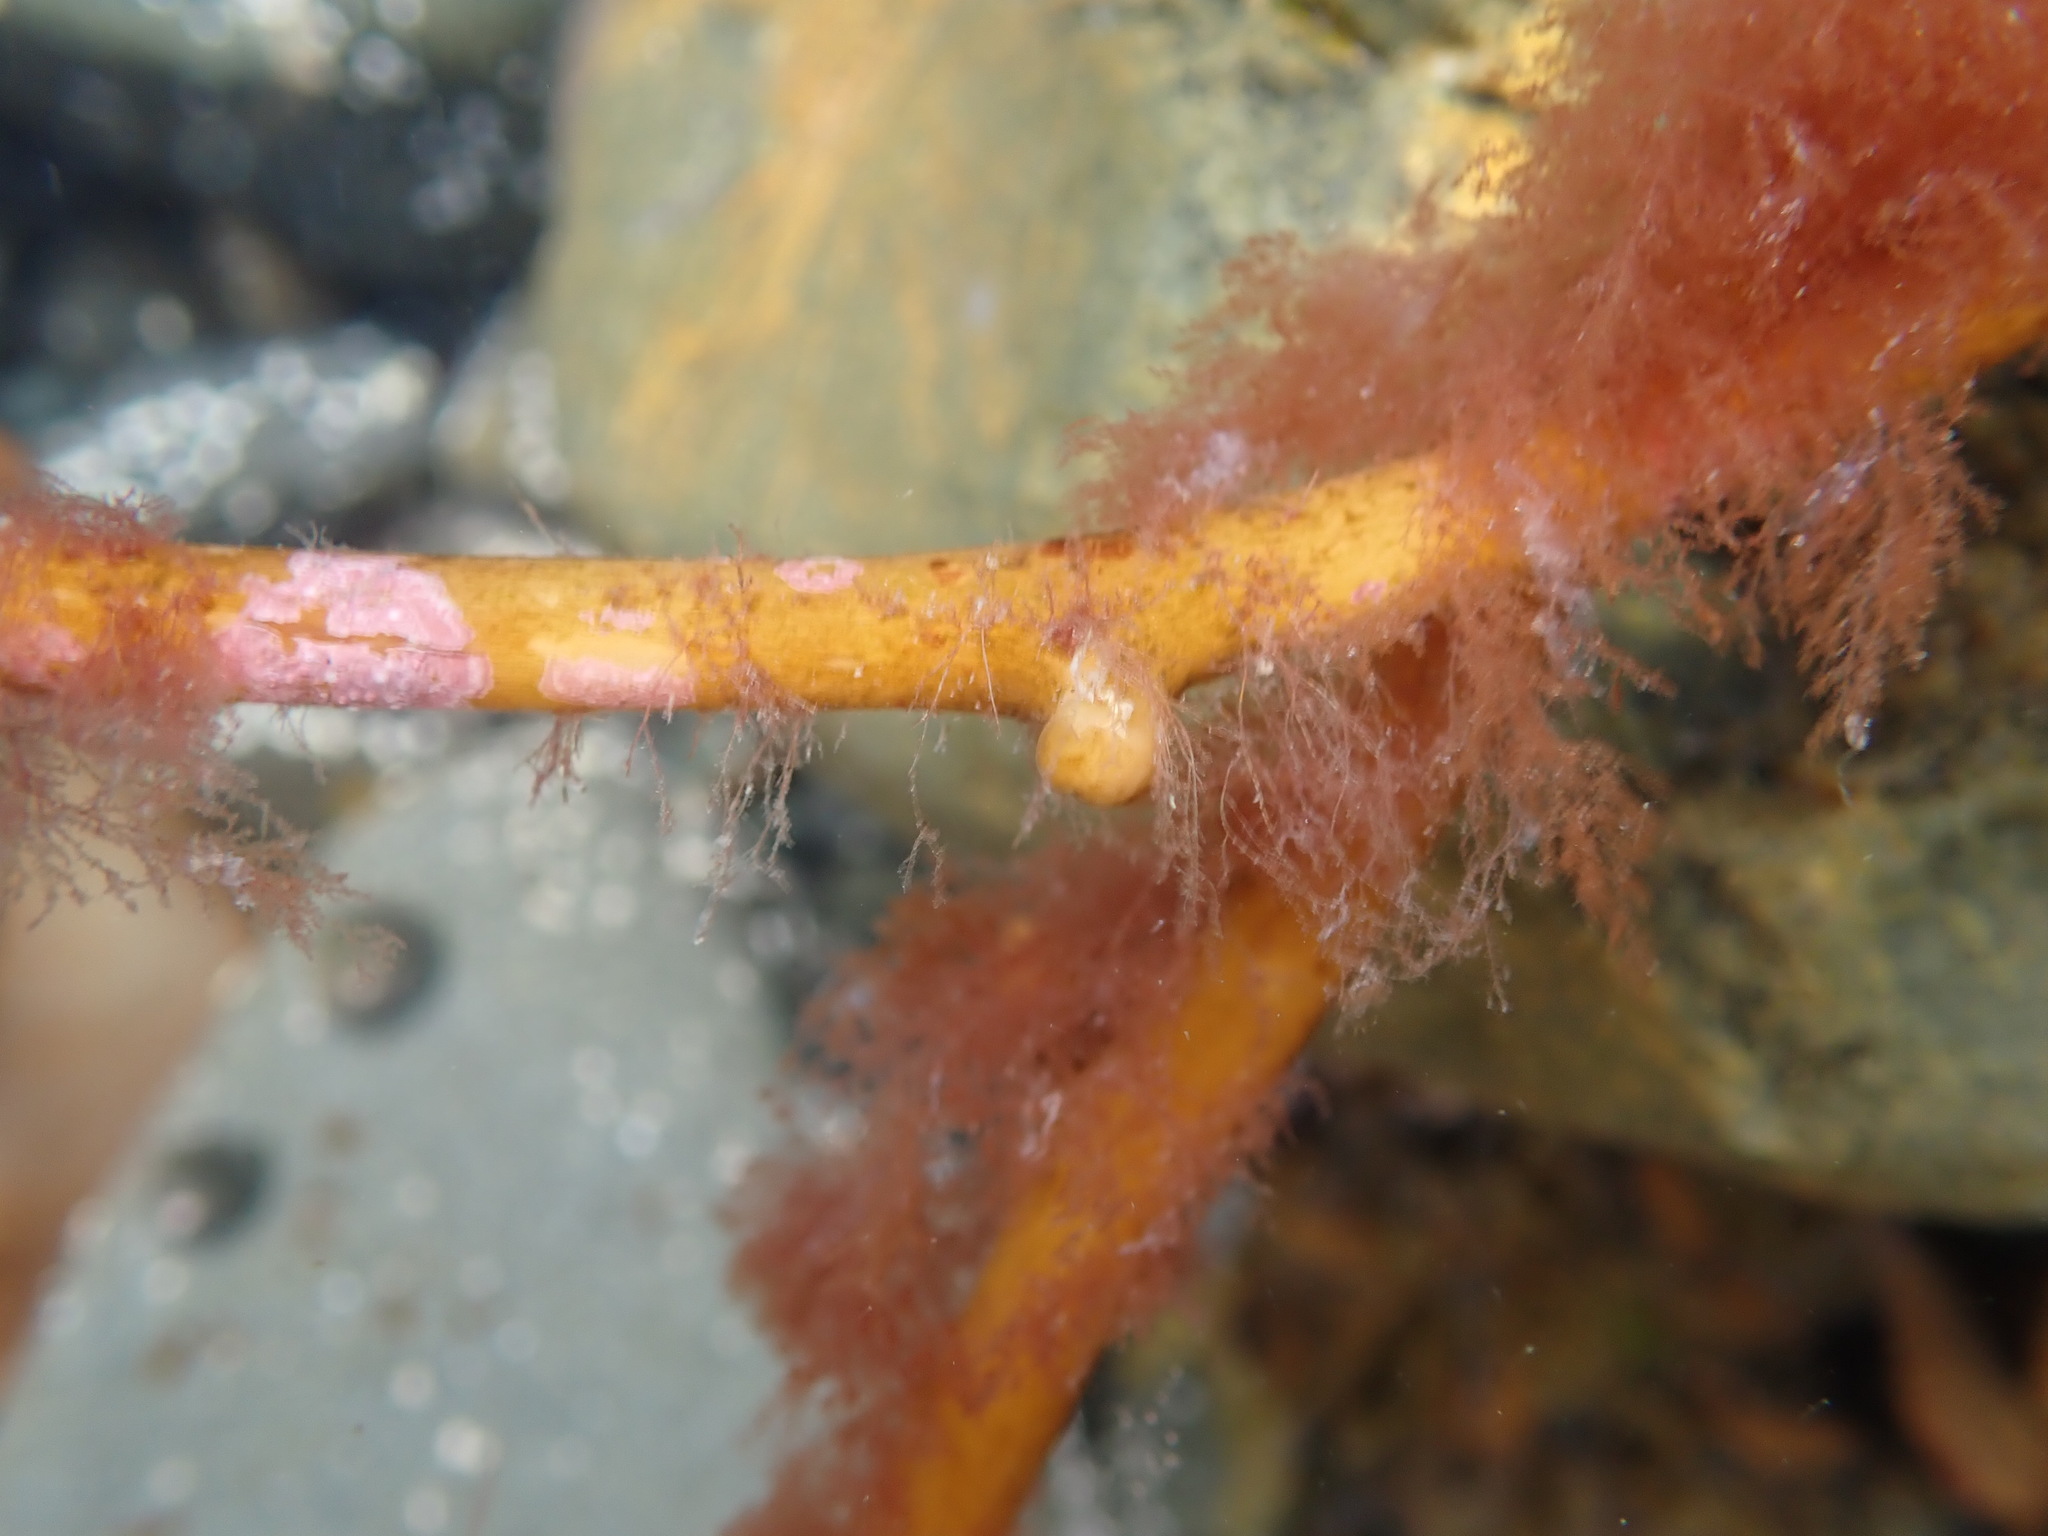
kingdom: Chromista
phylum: Ochrophyta
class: Phaeophyceae
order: Laminariales
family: Laminariaceae
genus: Macrocystis
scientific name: Macrocystis pyrifera
